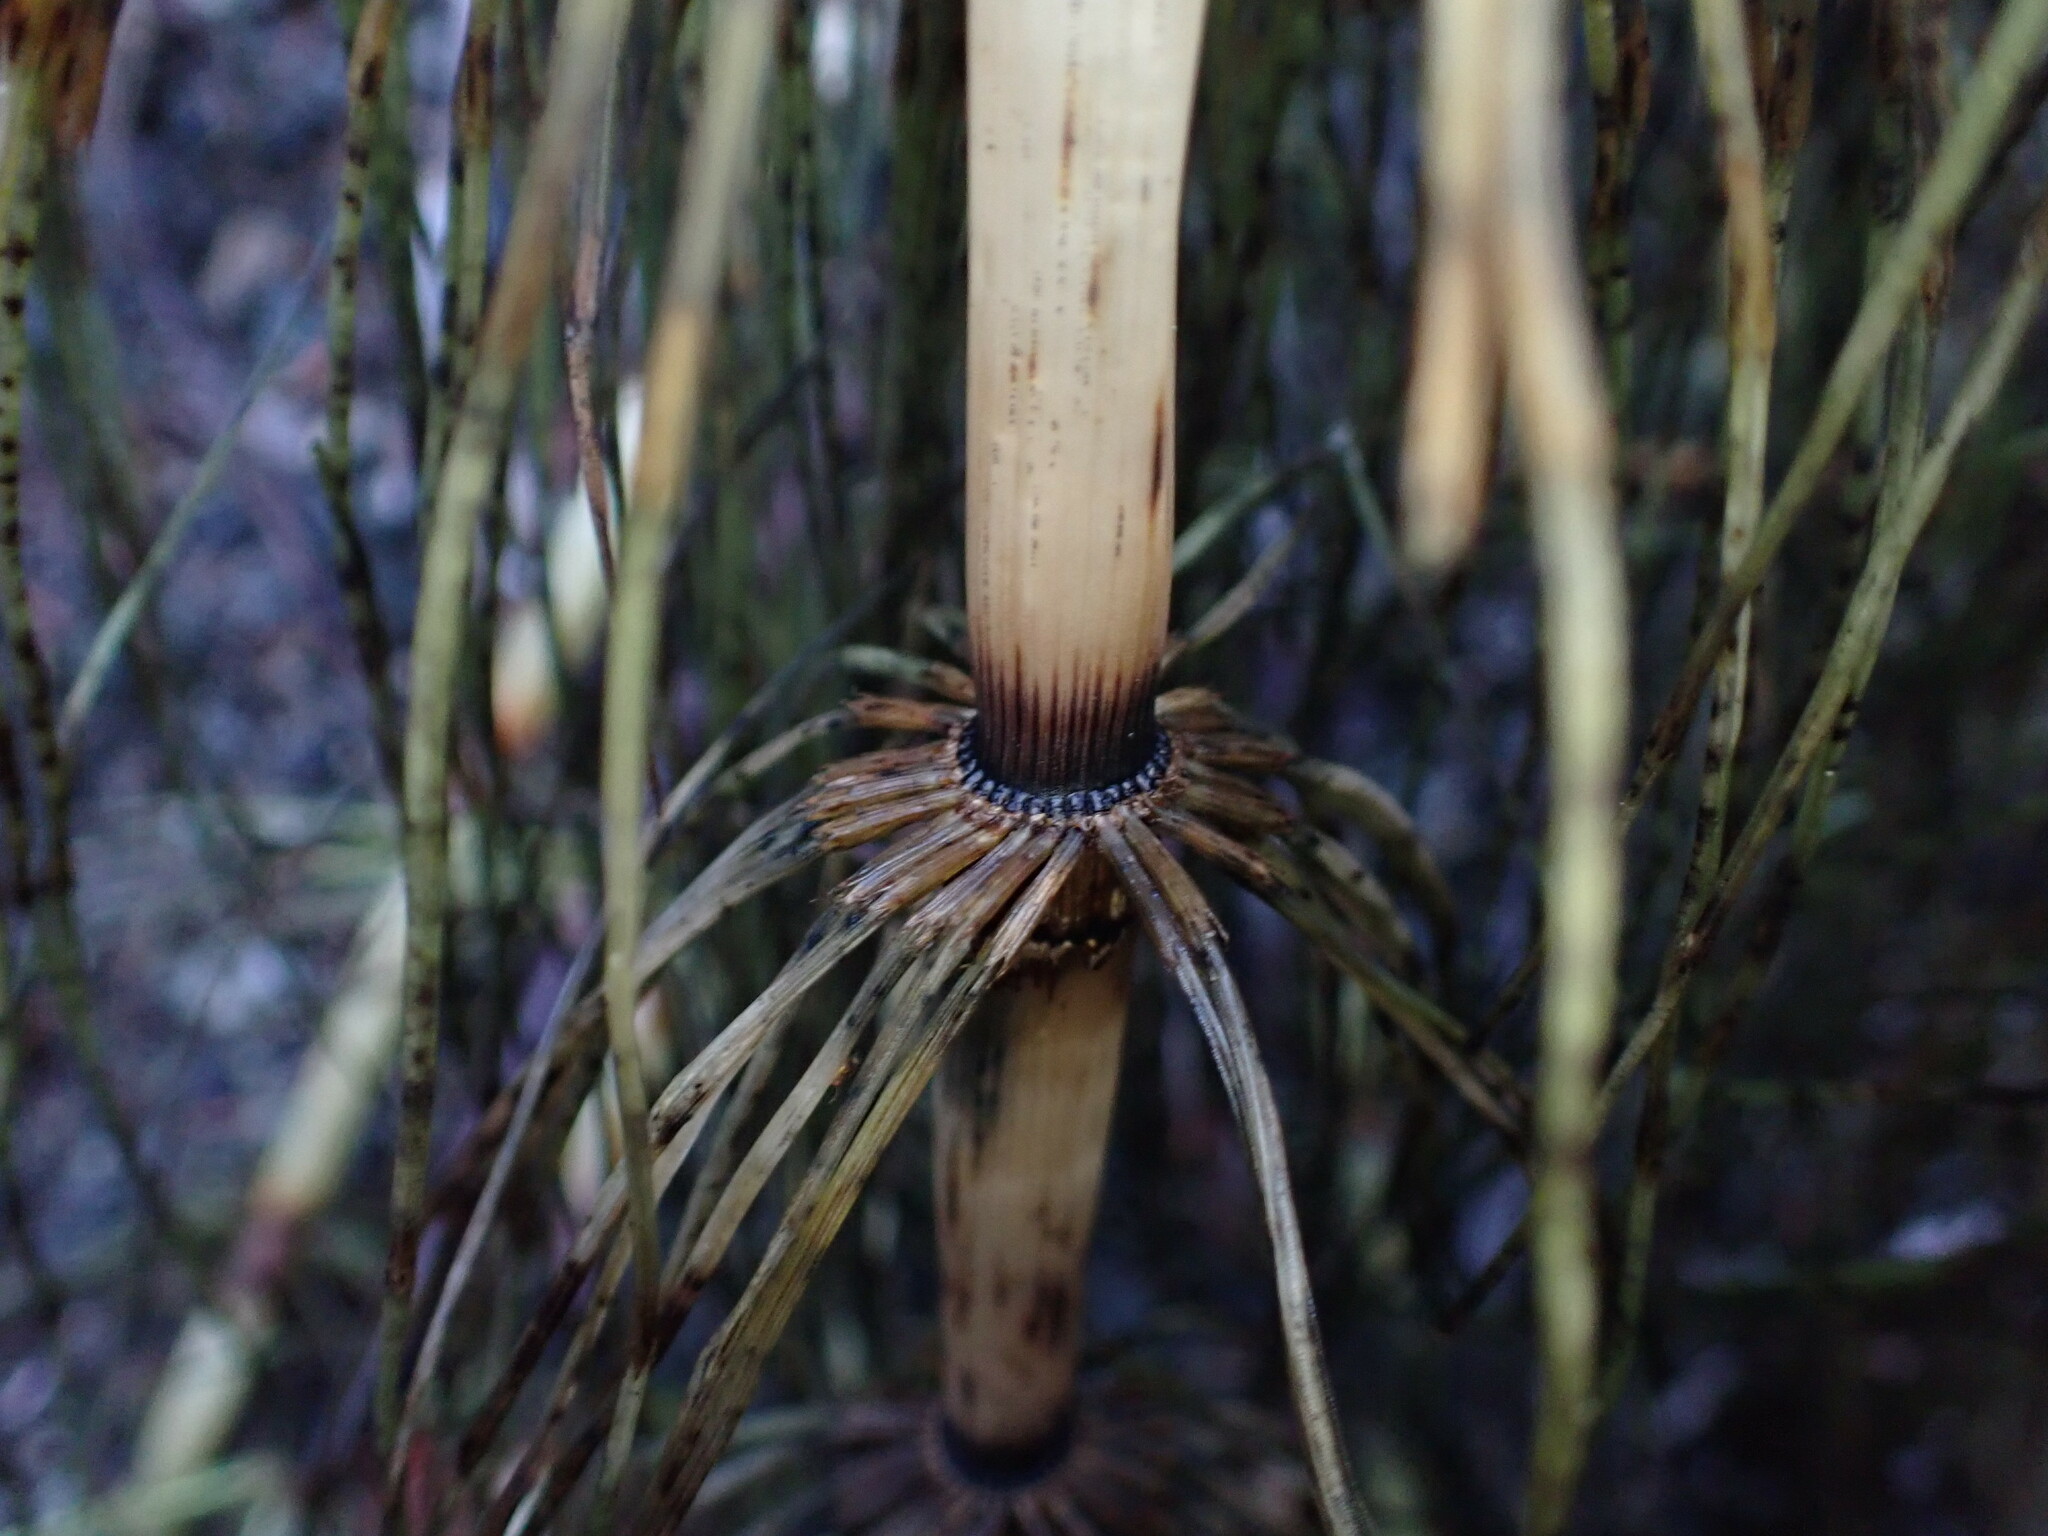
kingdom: Plantae
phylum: Tracheophyta
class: Polypodiopsida
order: Equisetales
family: Equisetaceae
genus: Equisetum
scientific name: Equisetum braunii
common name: Braun's horsetail
